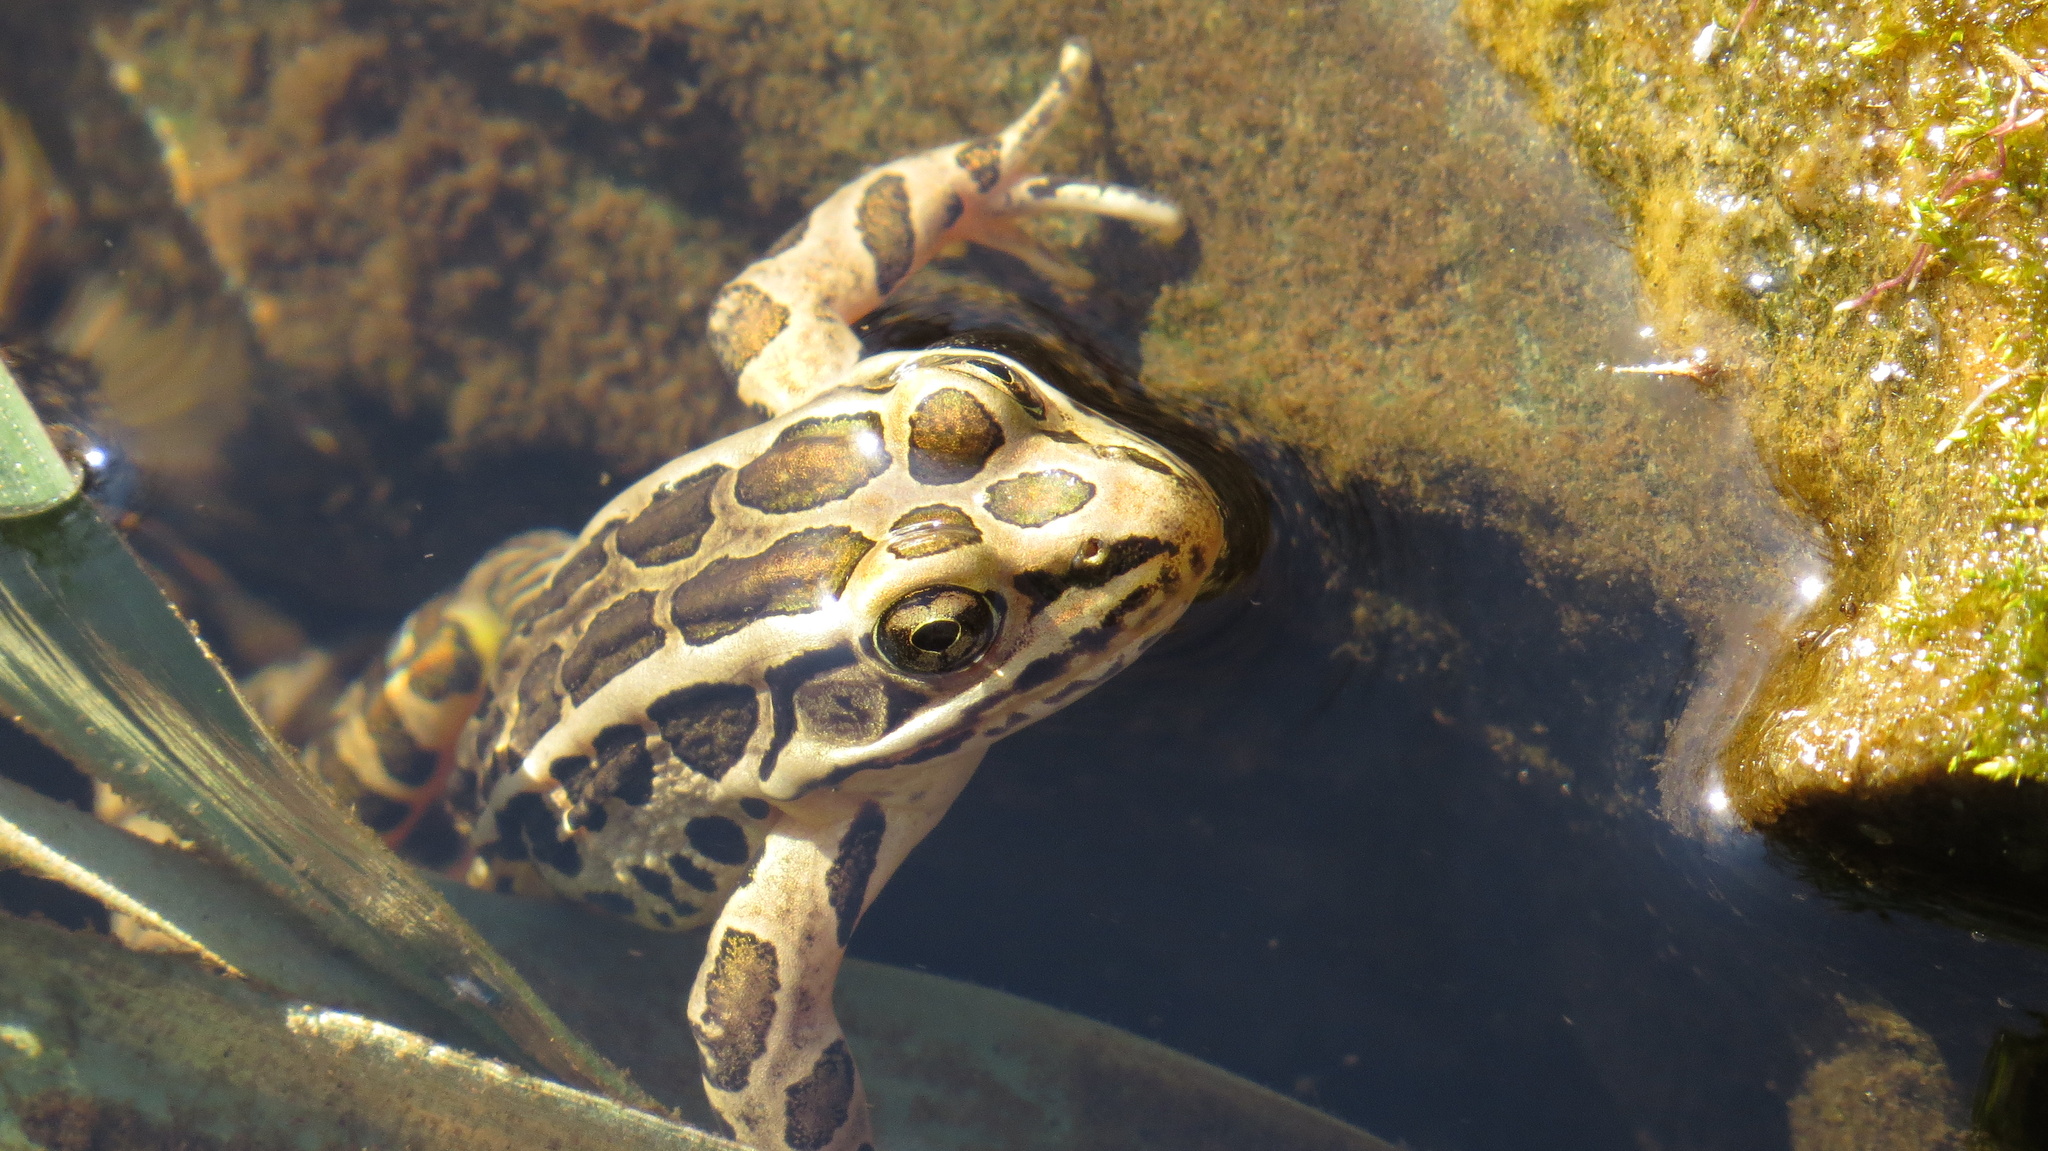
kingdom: Animalia
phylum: Chordata
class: Amphibia
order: Anura
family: Ranidae
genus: Lithobates
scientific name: Lithobates palustris
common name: Pickerel frog
